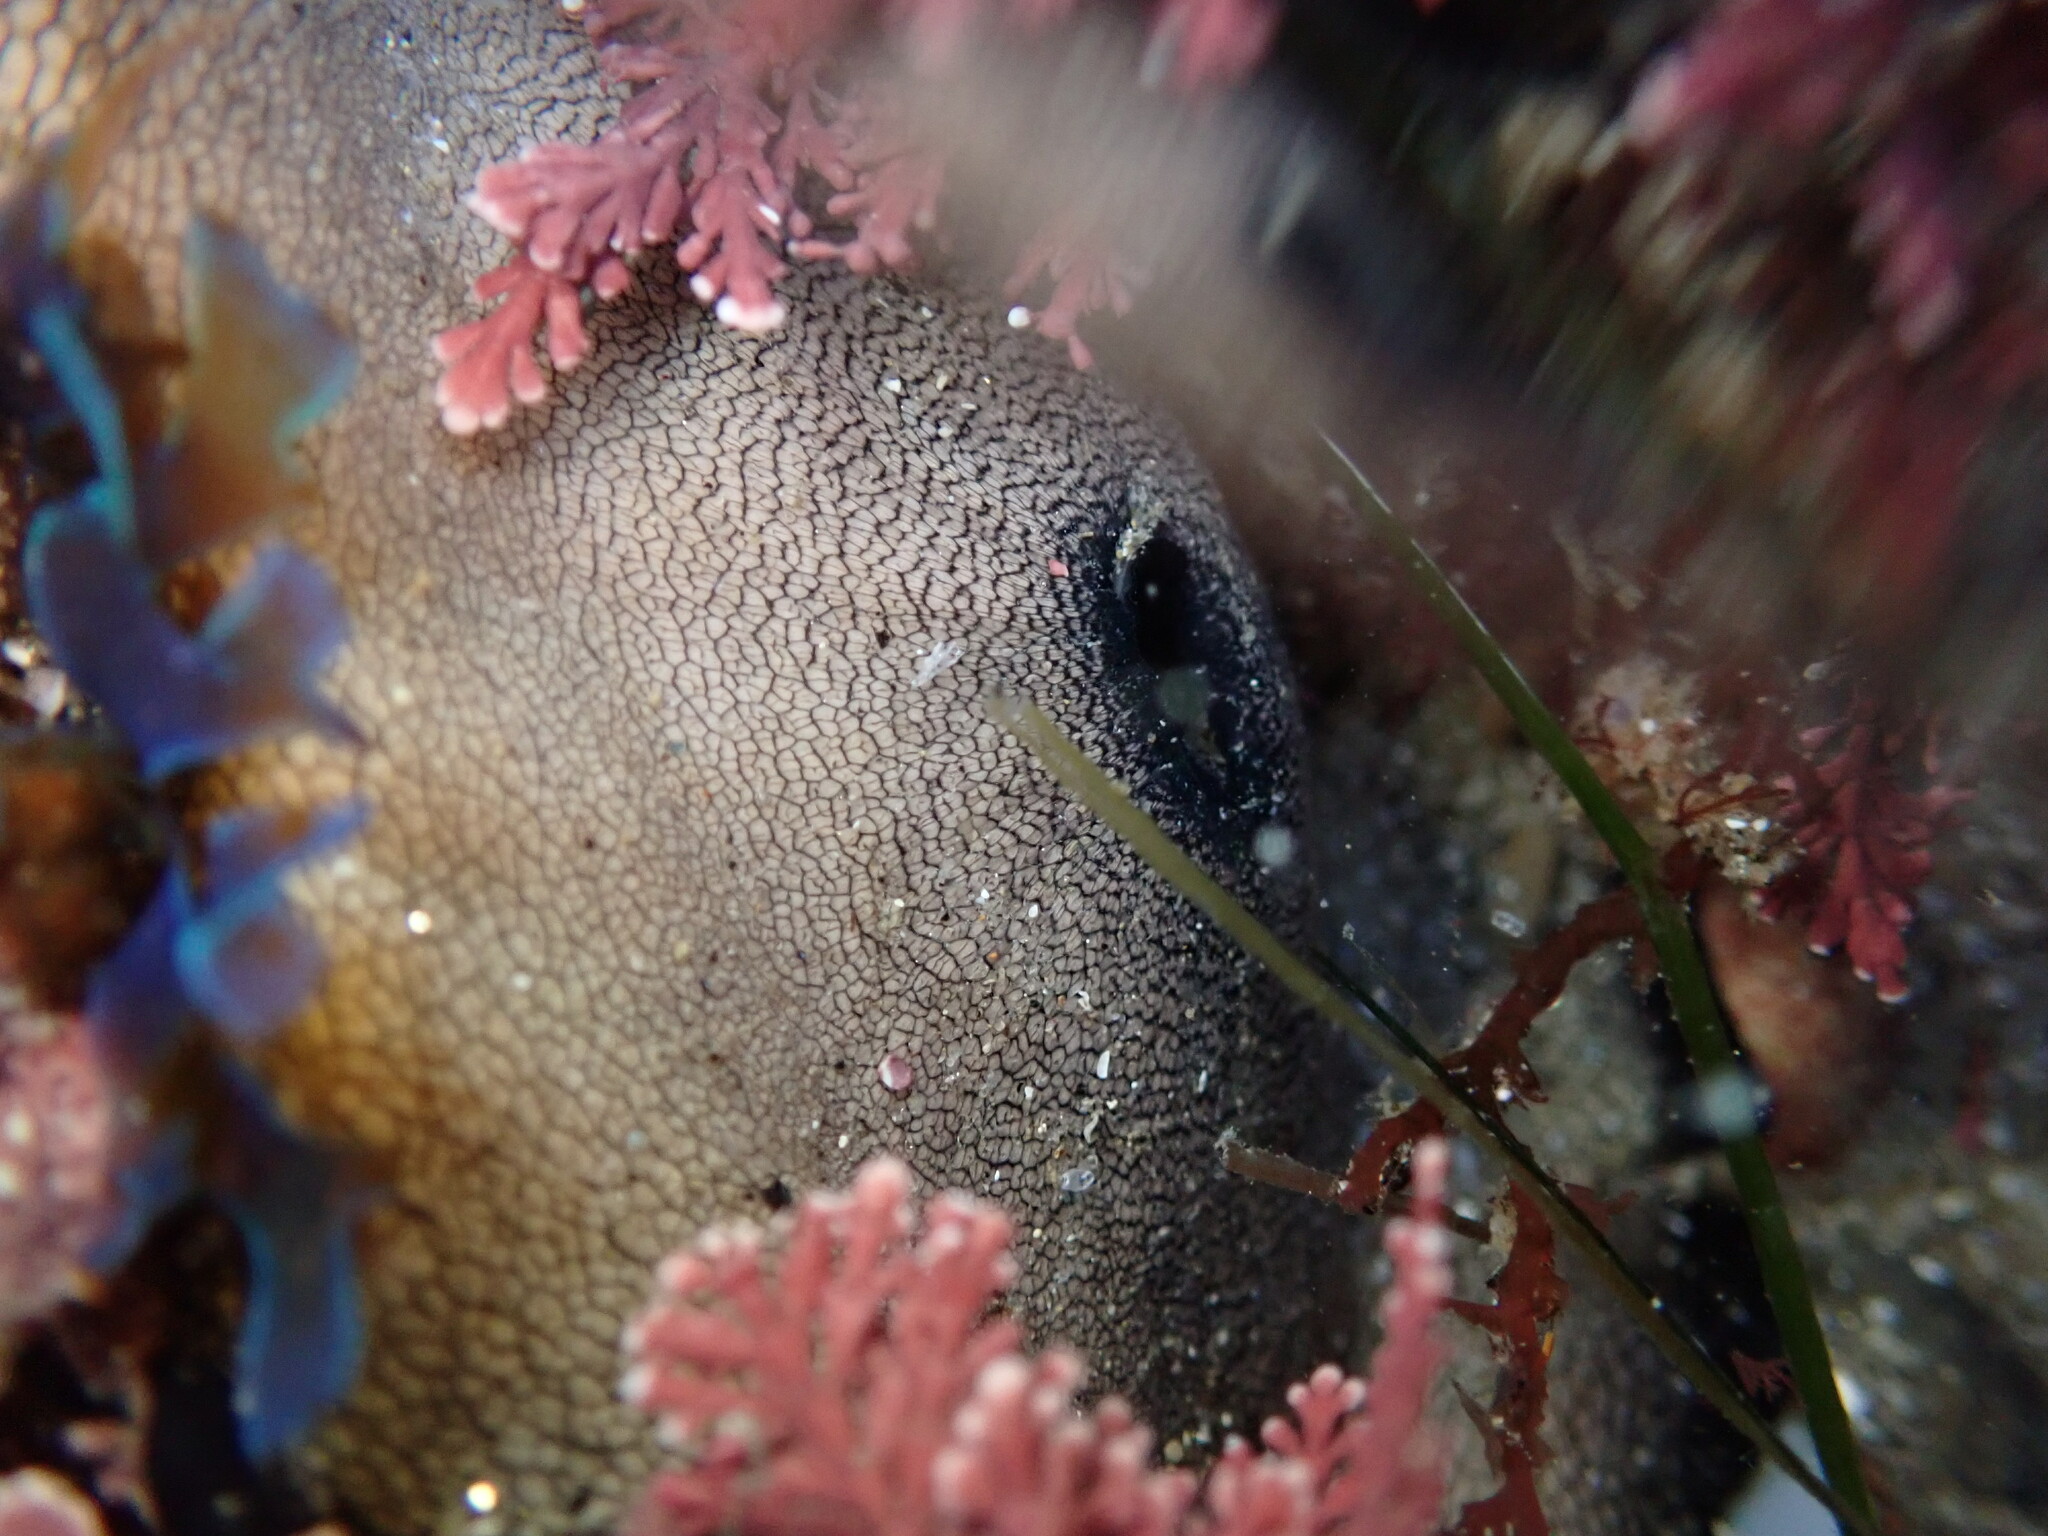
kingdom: Animalia
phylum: Mollusca
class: Gastropoda
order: Lepetellida
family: Fissurellidae
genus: Megathura
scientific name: Megathura crenulata
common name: Giant keyhole limpet
